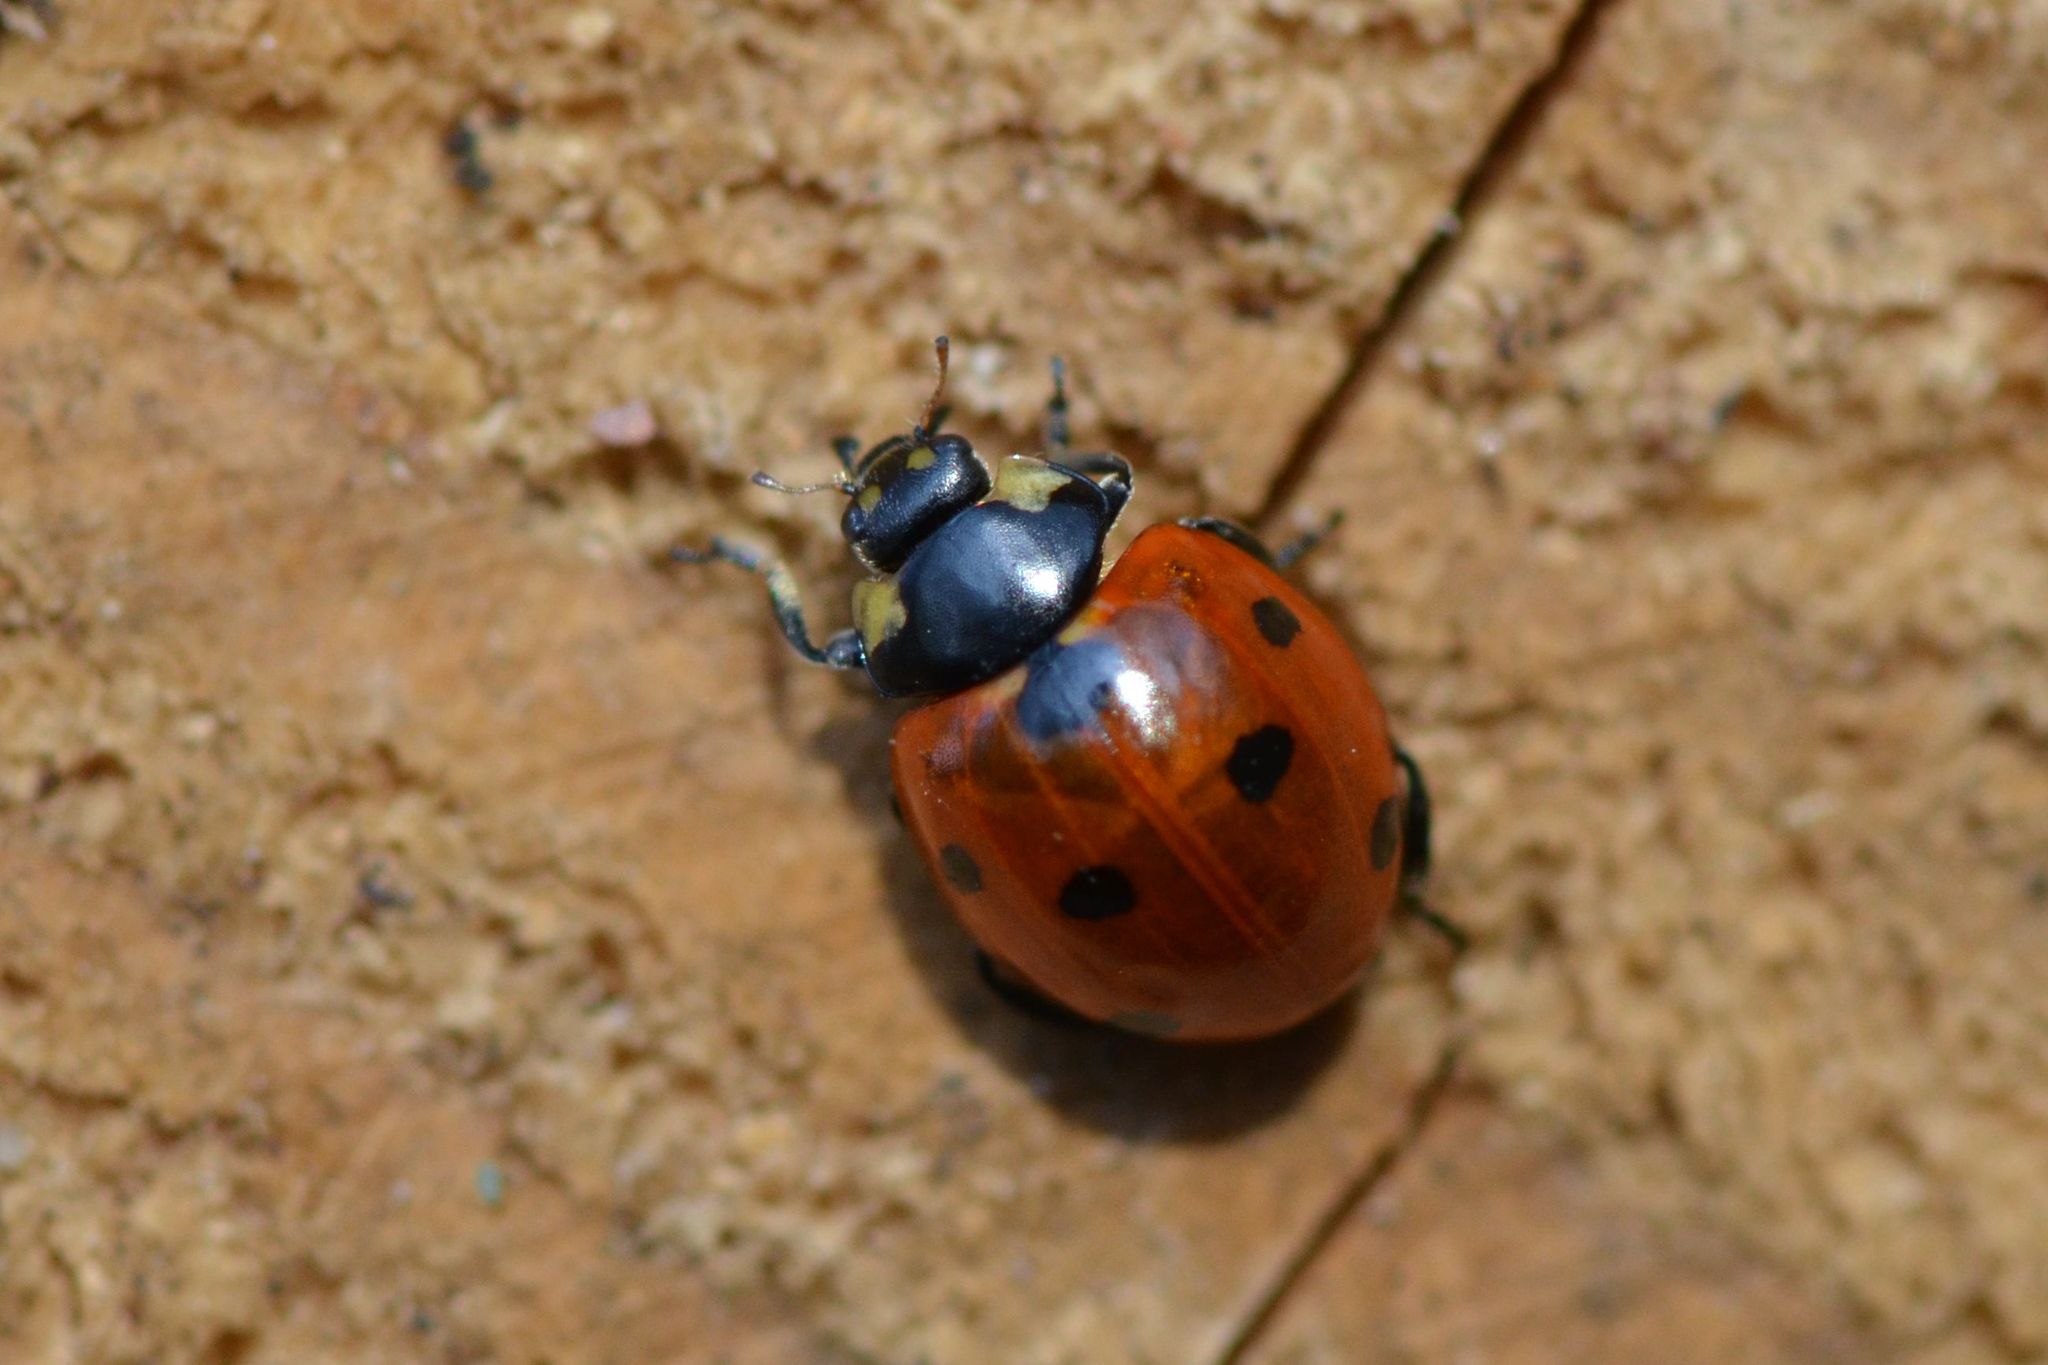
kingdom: Animalia
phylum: Arthropoda
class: Insecta
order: Coleoptera
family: Coccinellidae
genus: Coccinella
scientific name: Coccinella septempunctata
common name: Sevenspotted lady beetle
